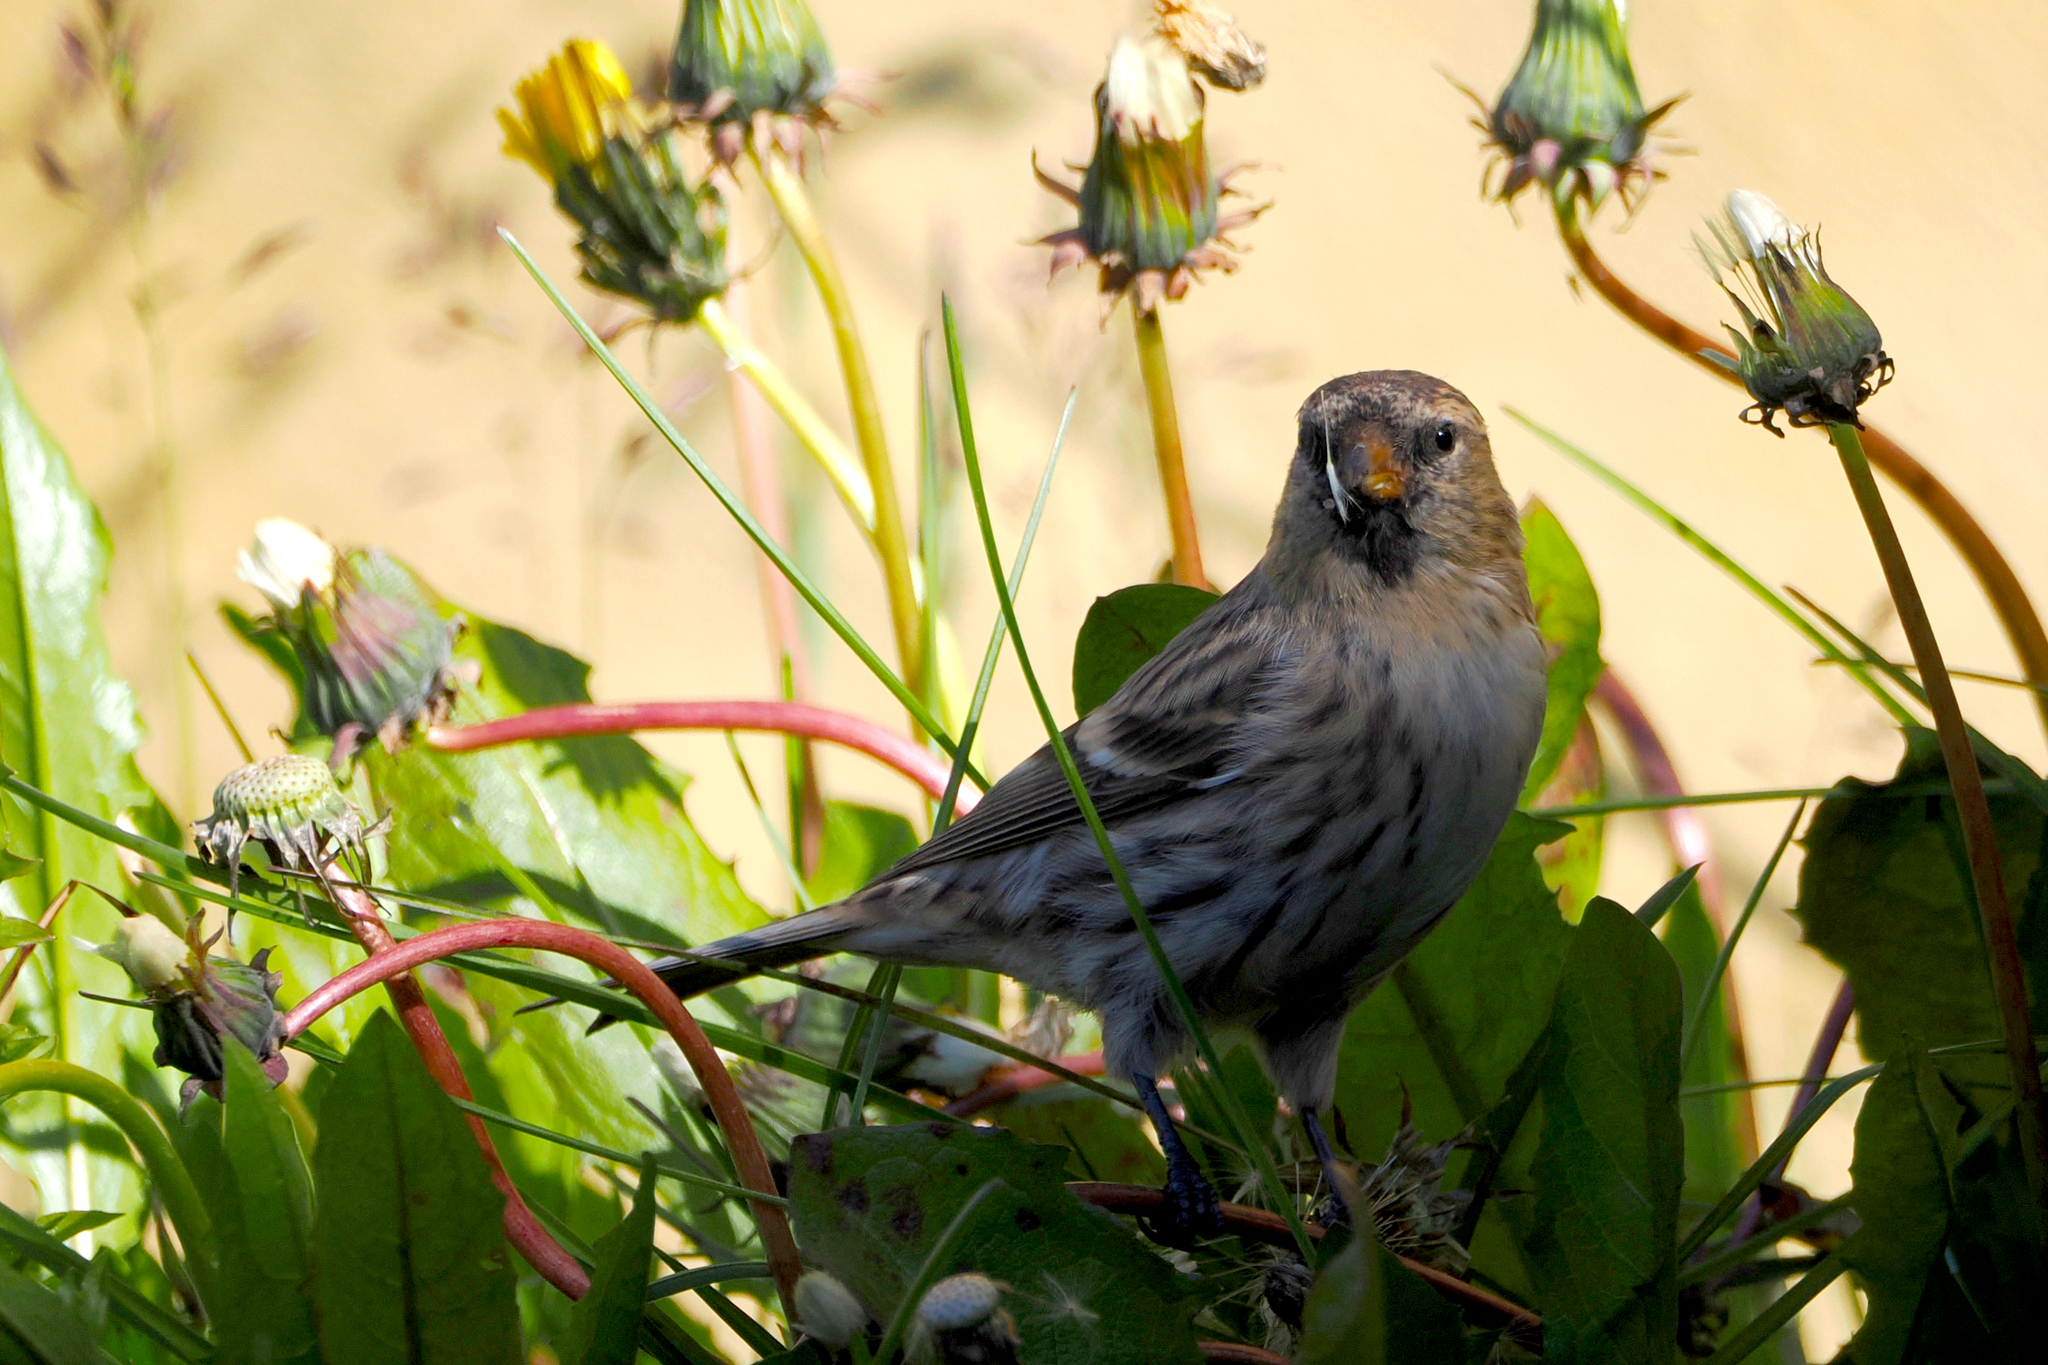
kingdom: Animalia
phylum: Chordata
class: Aves
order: Passeriformes
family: Fringillidae
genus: Acanthis
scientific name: Acanthis flammea
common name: Common redpoll
